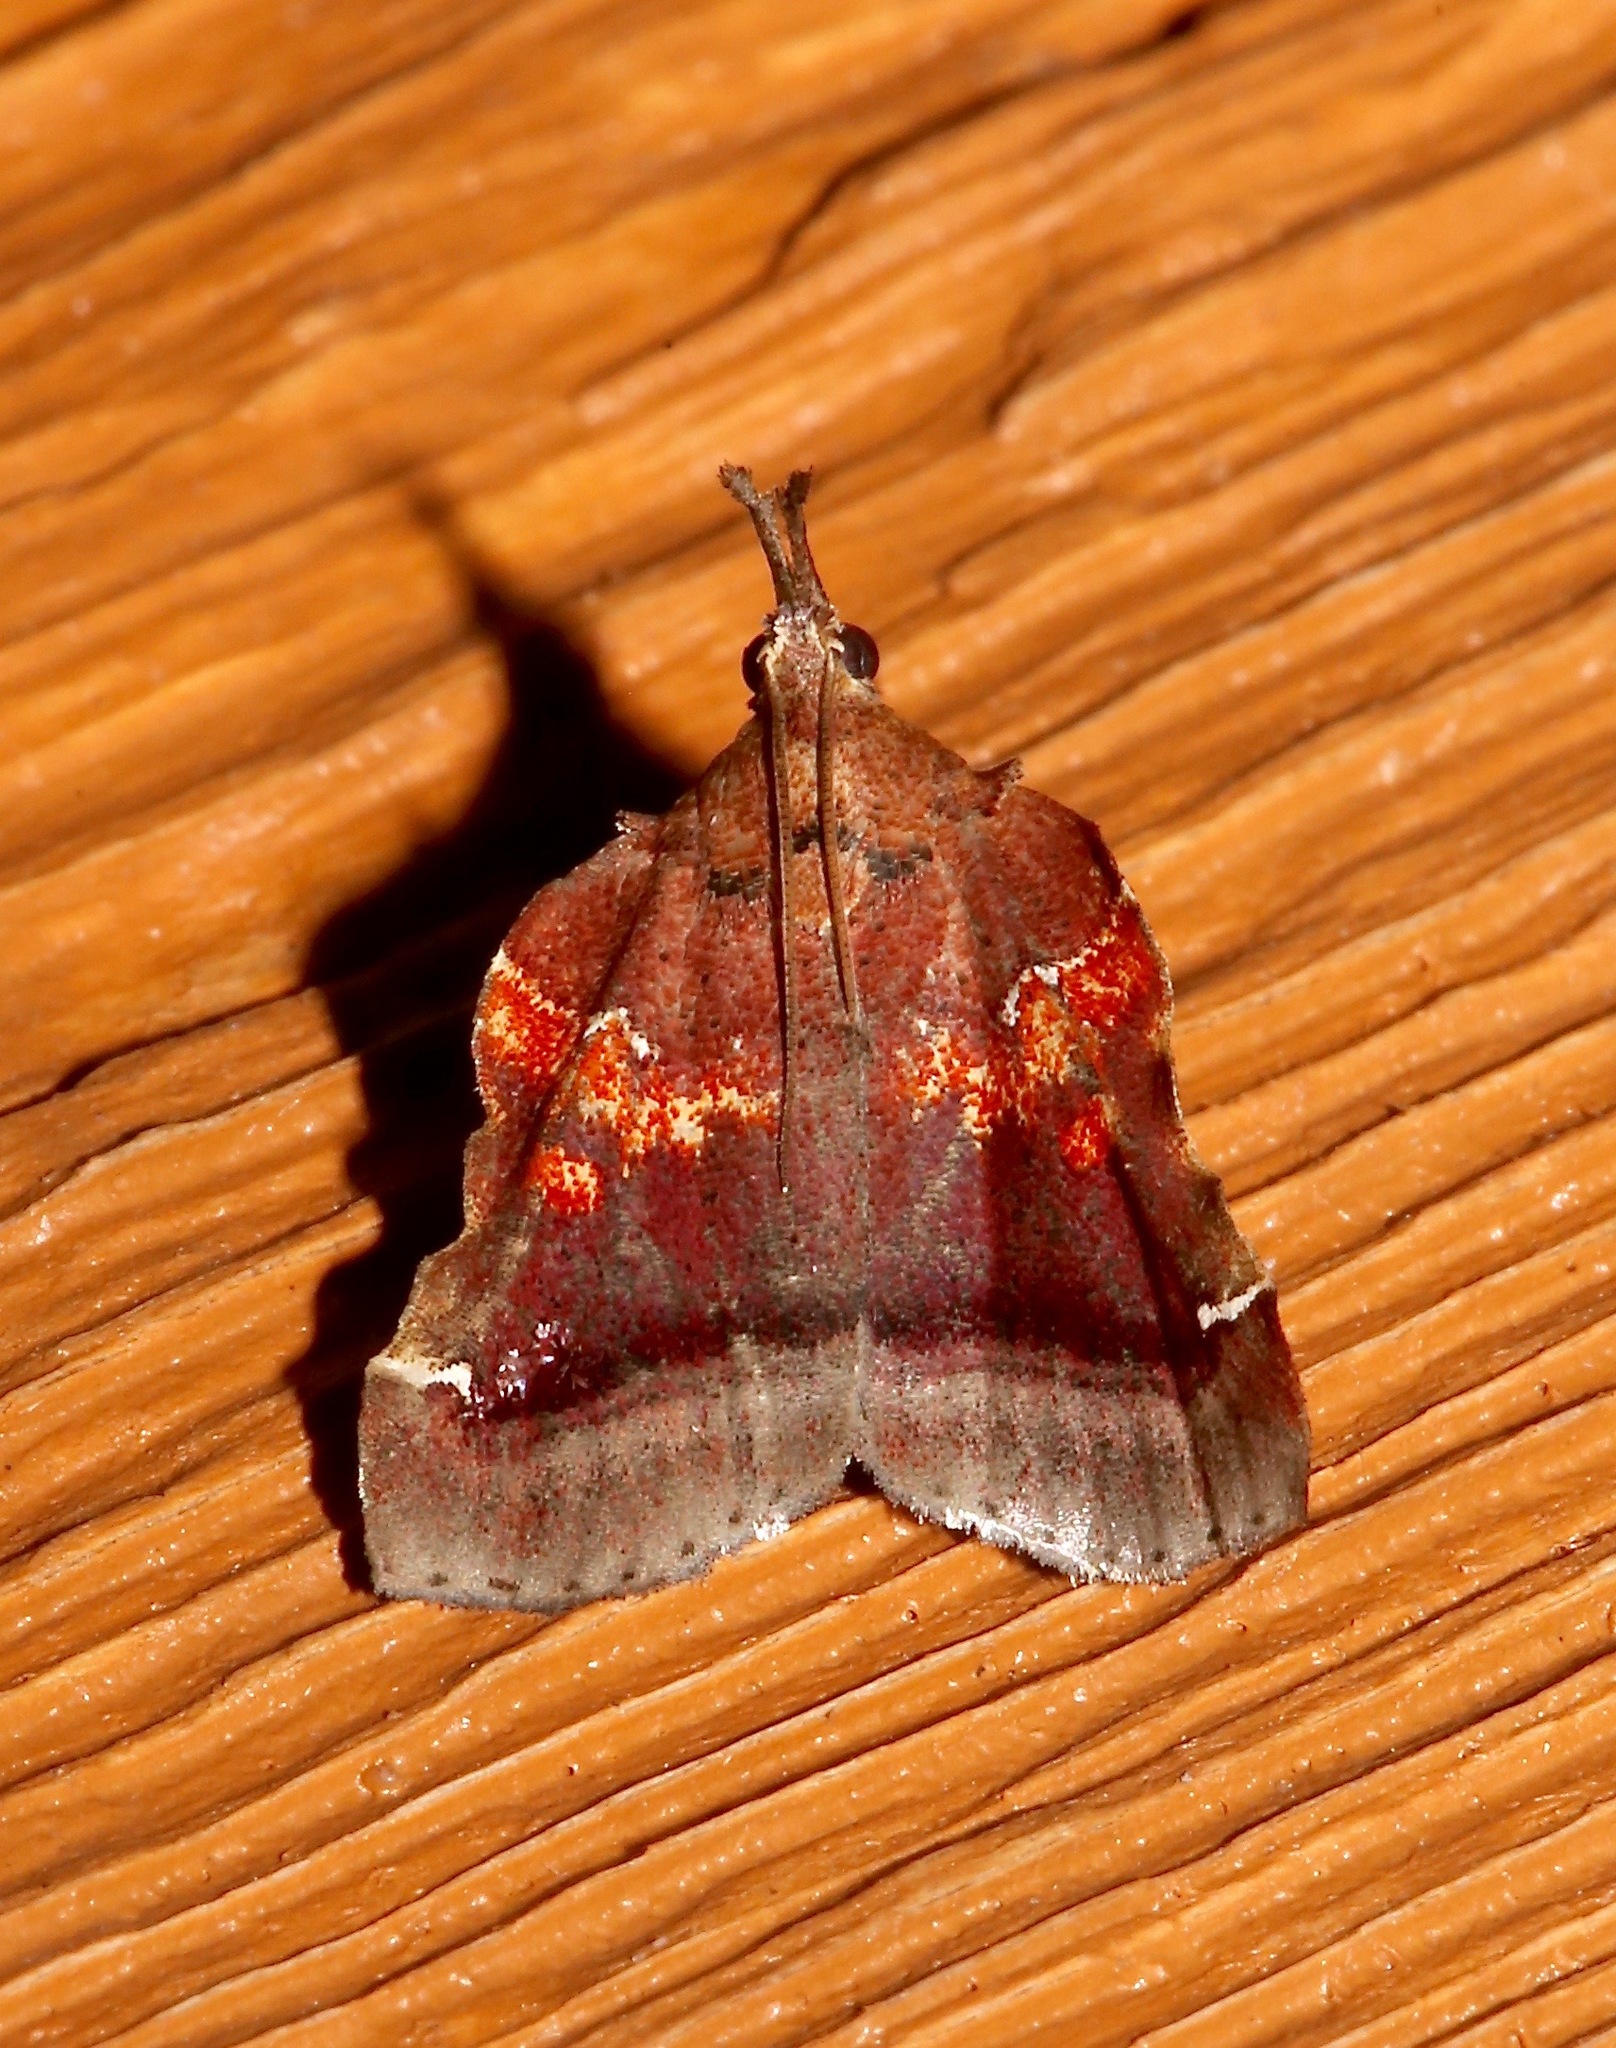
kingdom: Animalia
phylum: Arthropoda
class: Insecta
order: Lepidoptera
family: Pyralidae
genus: Clydonopteron
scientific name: Clydonopteron sacculana
